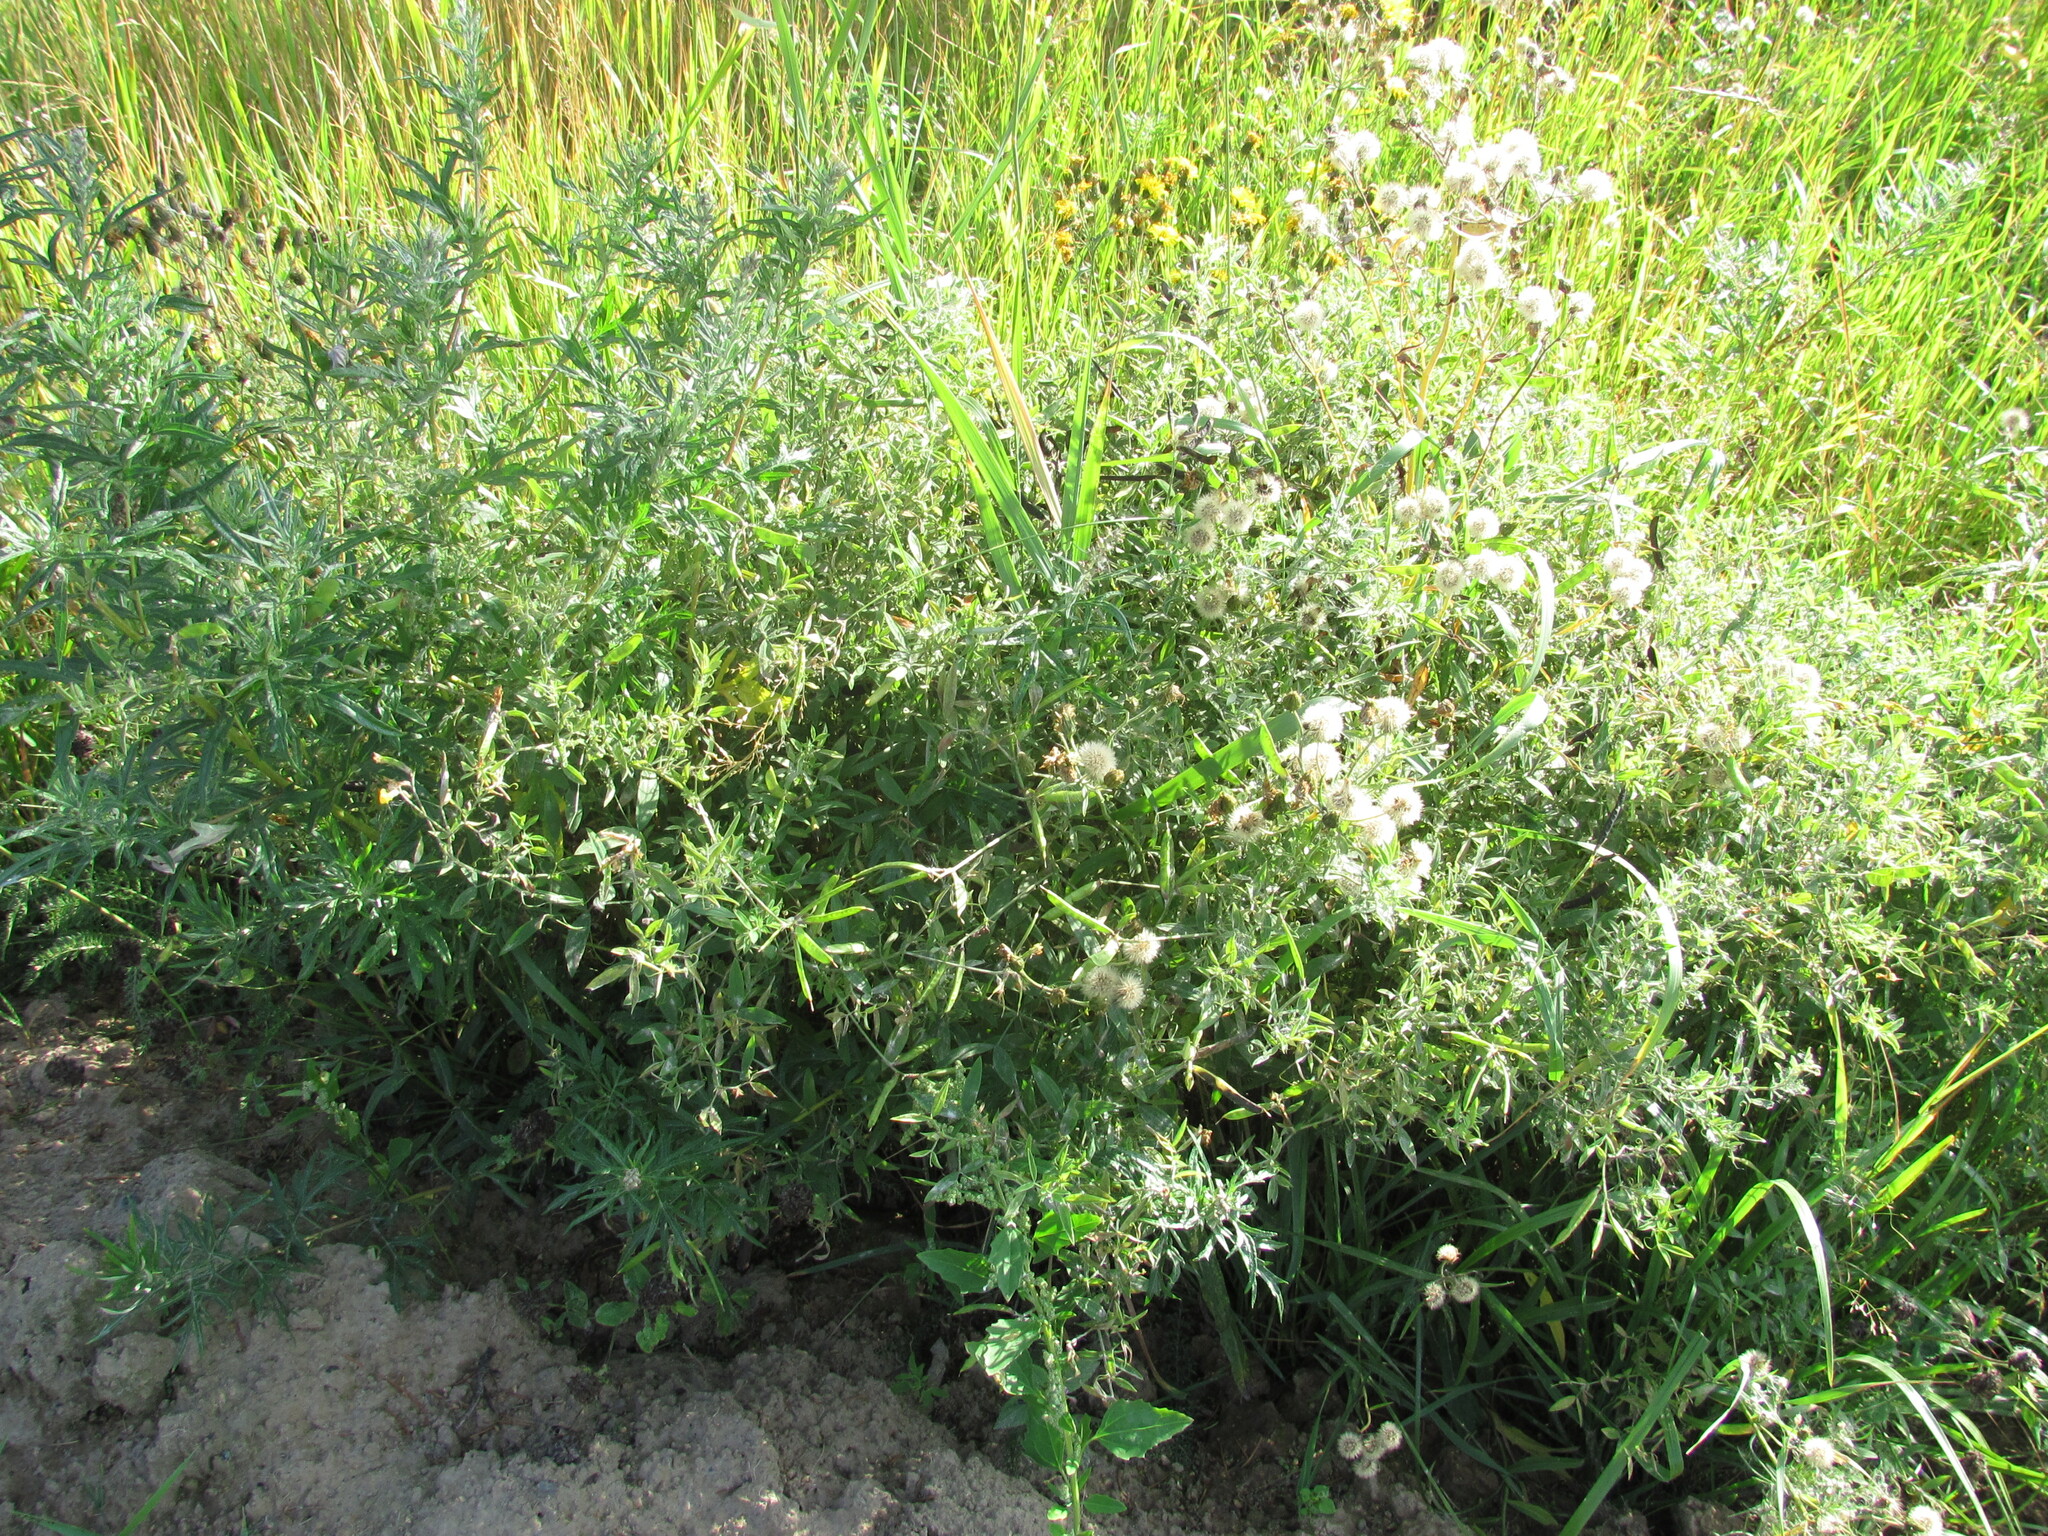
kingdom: Plantae
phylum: Tracheophyta
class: Magnoliopsida
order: Fabales
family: Fabaceae
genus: Lathyrus
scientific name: Lathyrus pratensis
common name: Meadow vetchling
